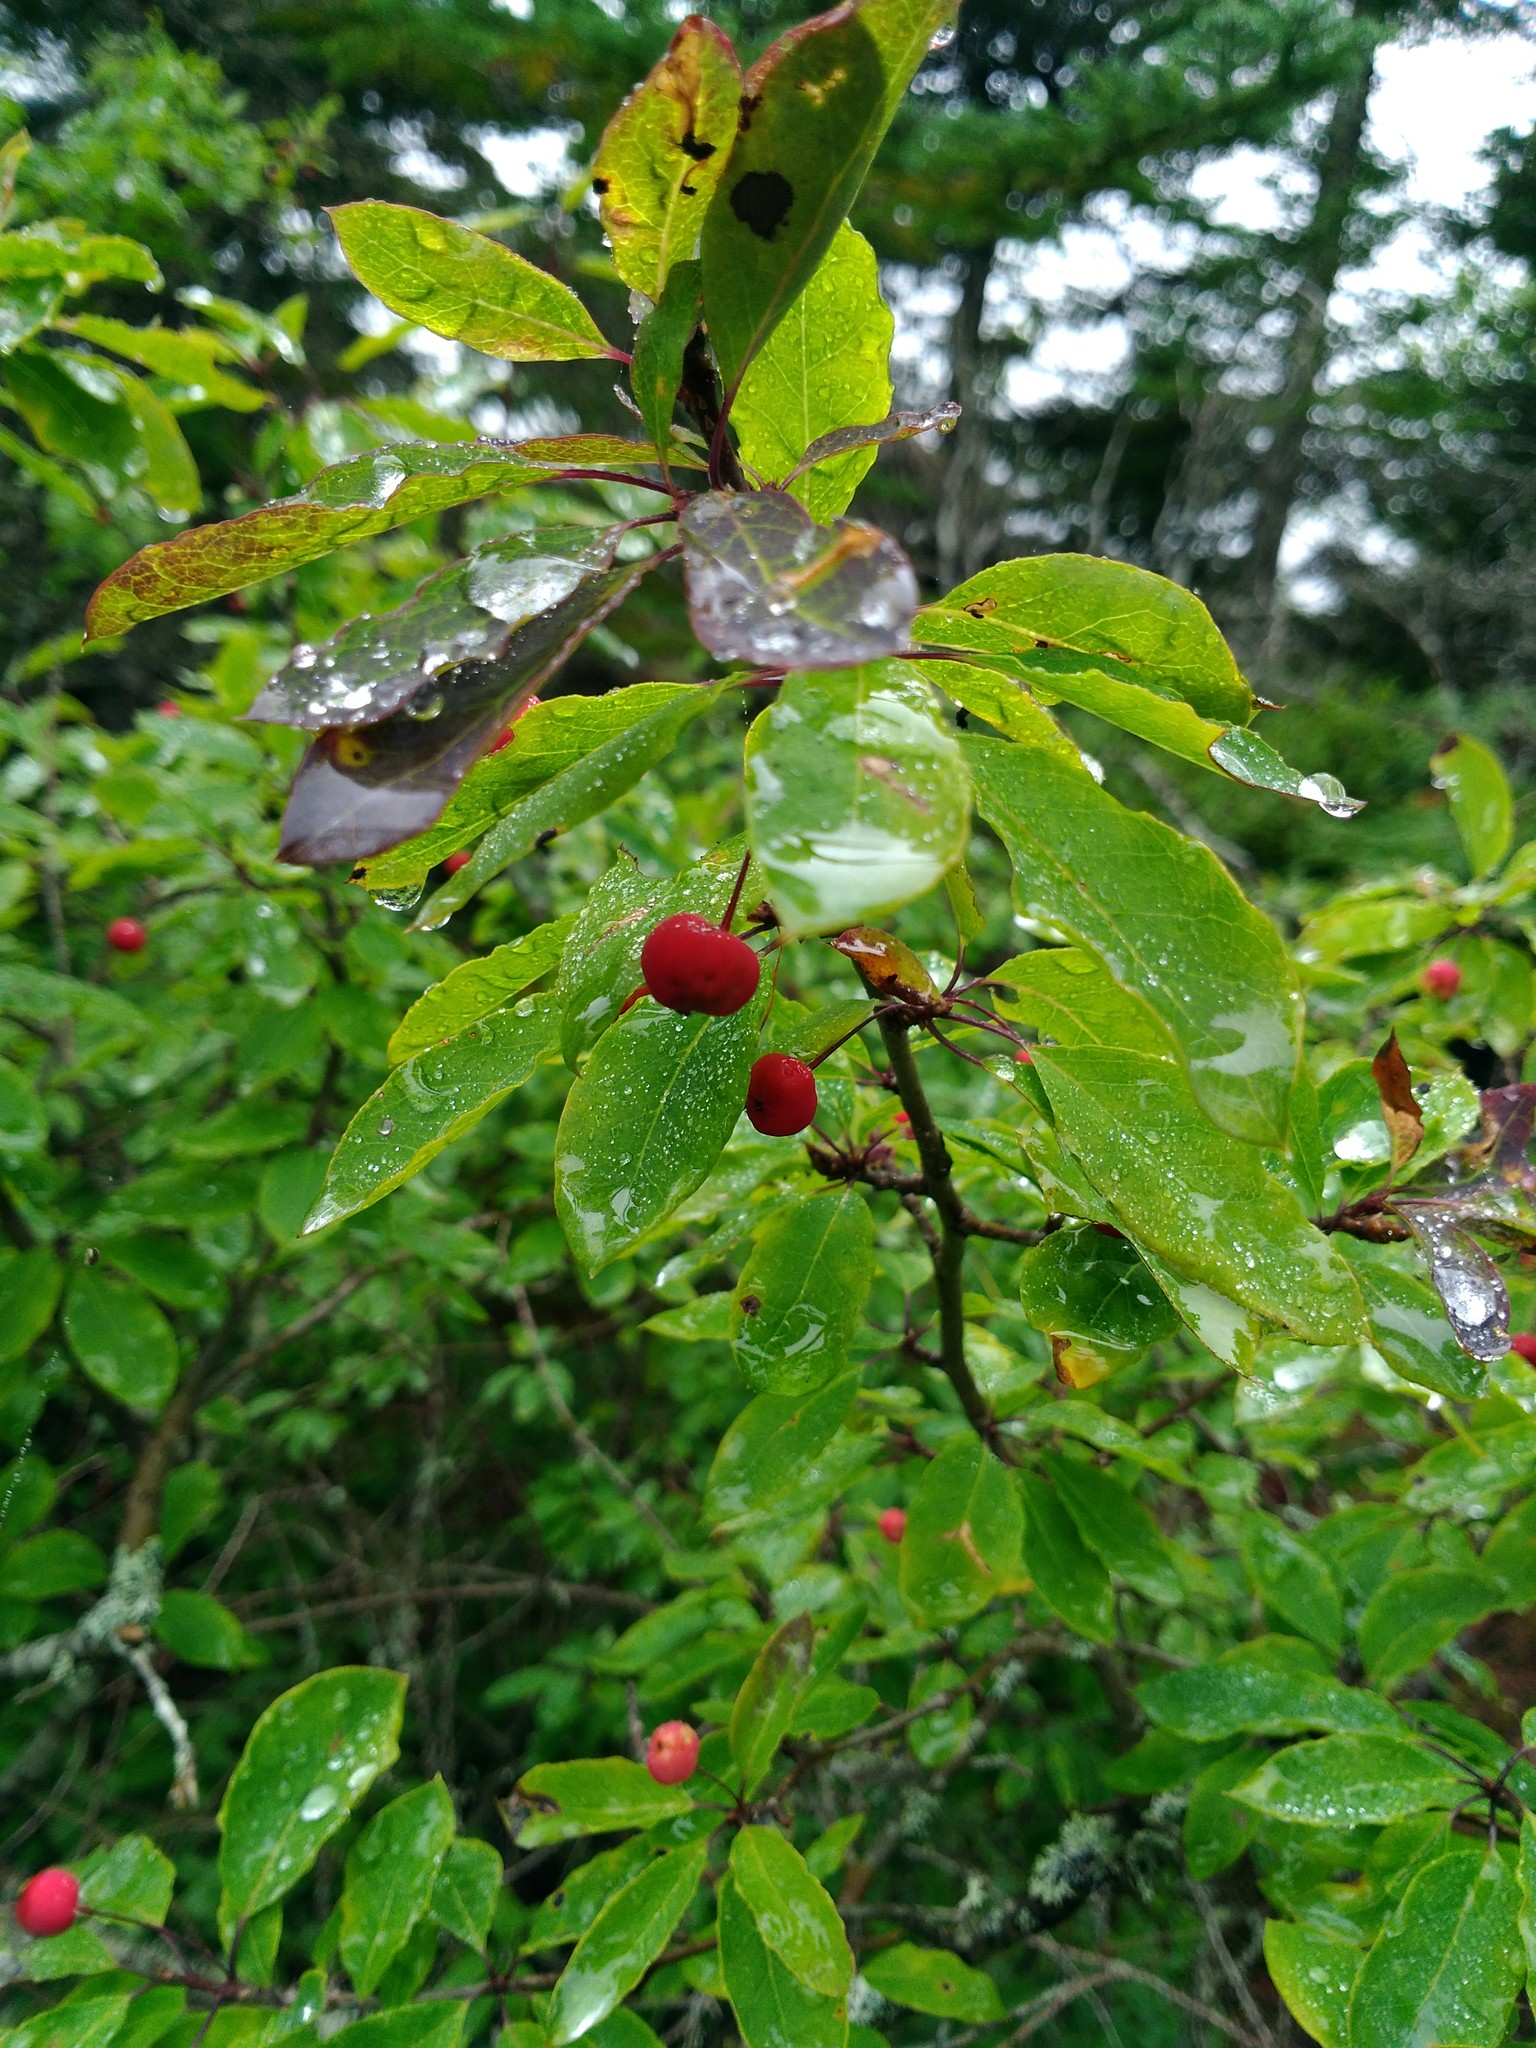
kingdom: Plantae
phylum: Tracheophyta
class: Magnoliopsida
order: Aquifoliales
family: Aquifoliaceae
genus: Ilex
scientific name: Ilex mucronata
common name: Catberry
